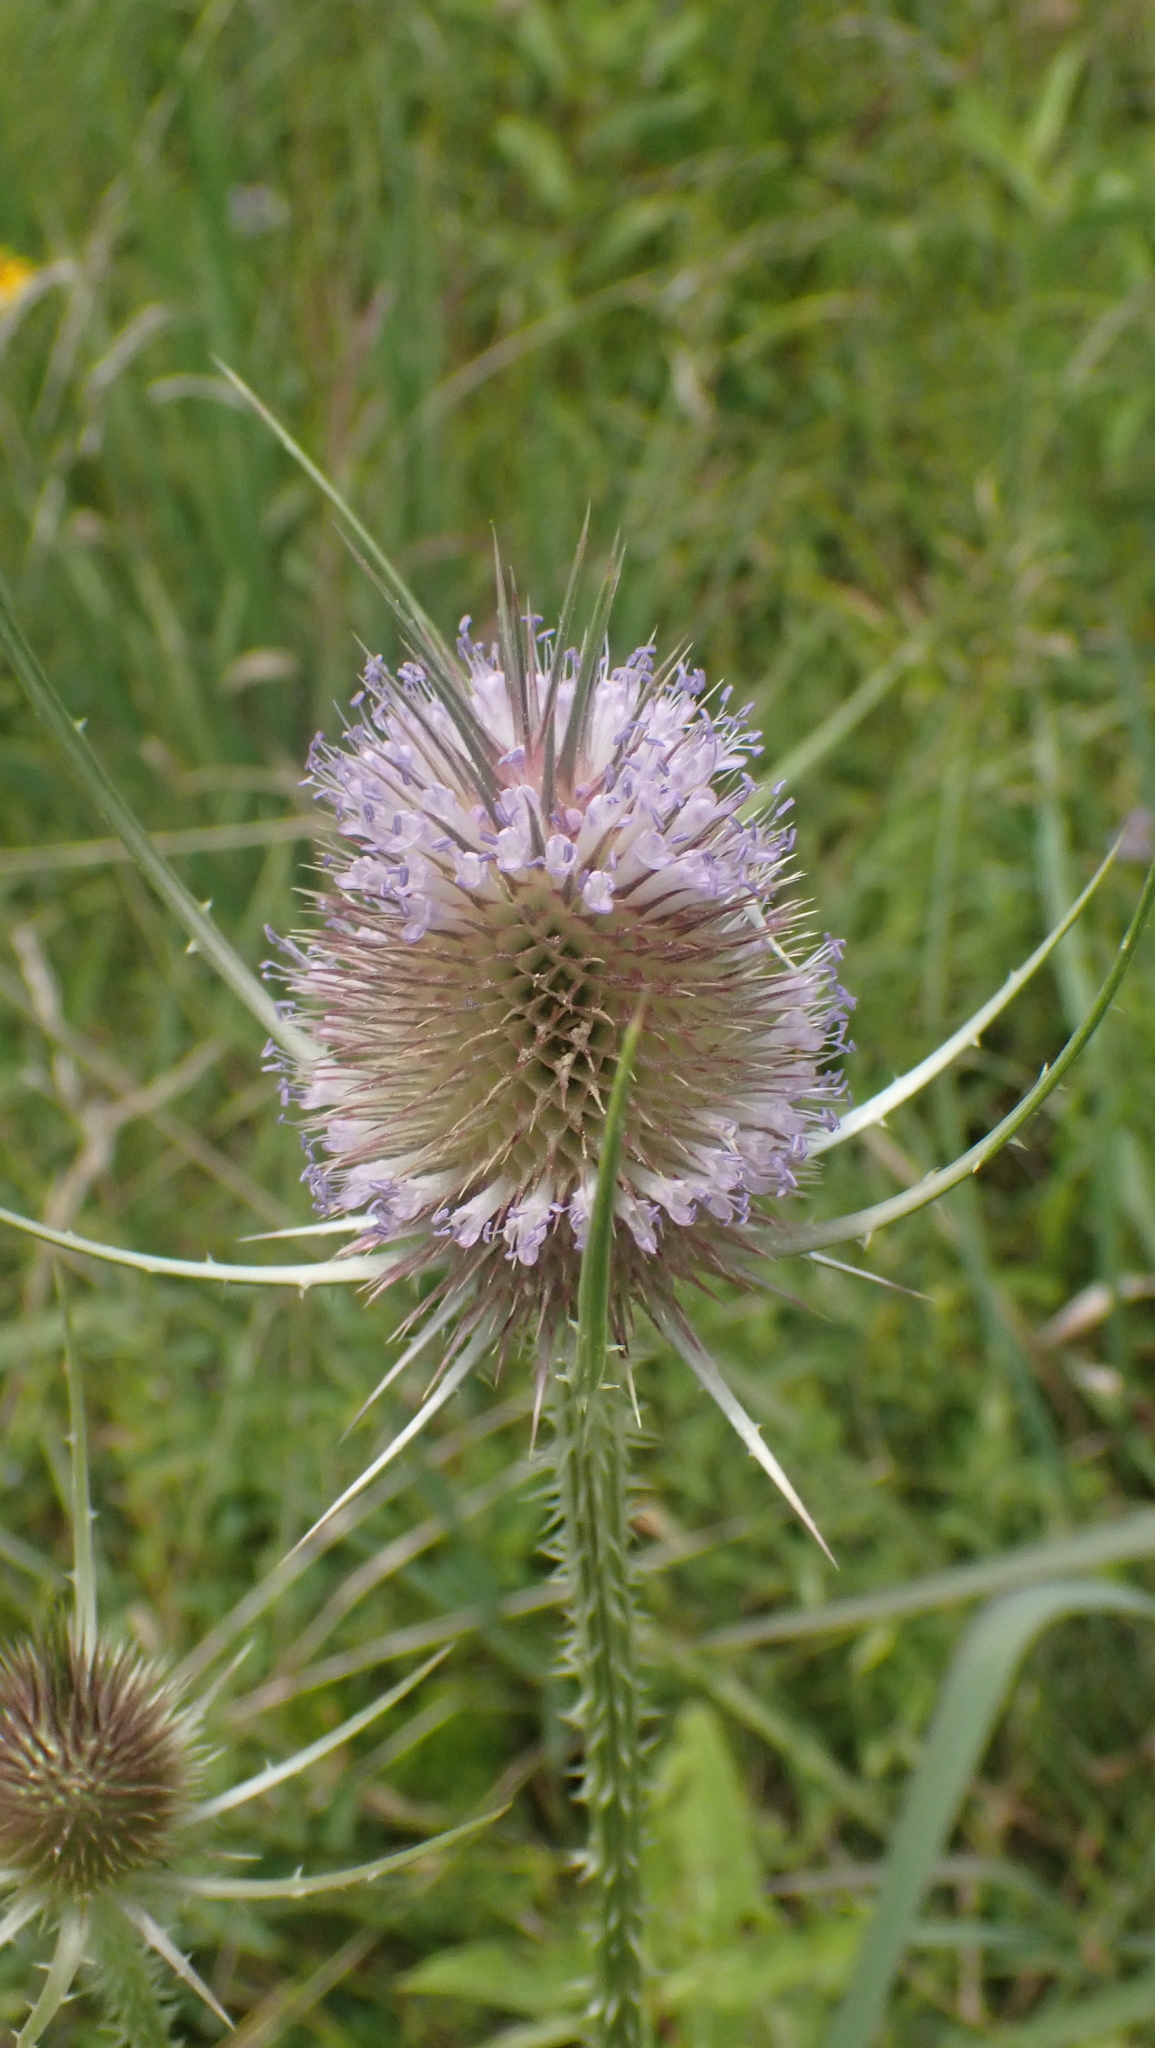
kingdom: Plantae
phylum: Tracheophyta
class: Magnoliopsida
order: Dipsacales
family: Caprifoliaceae
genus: Dipsacus
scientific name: Dipsacus fullonum
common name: Teasel
